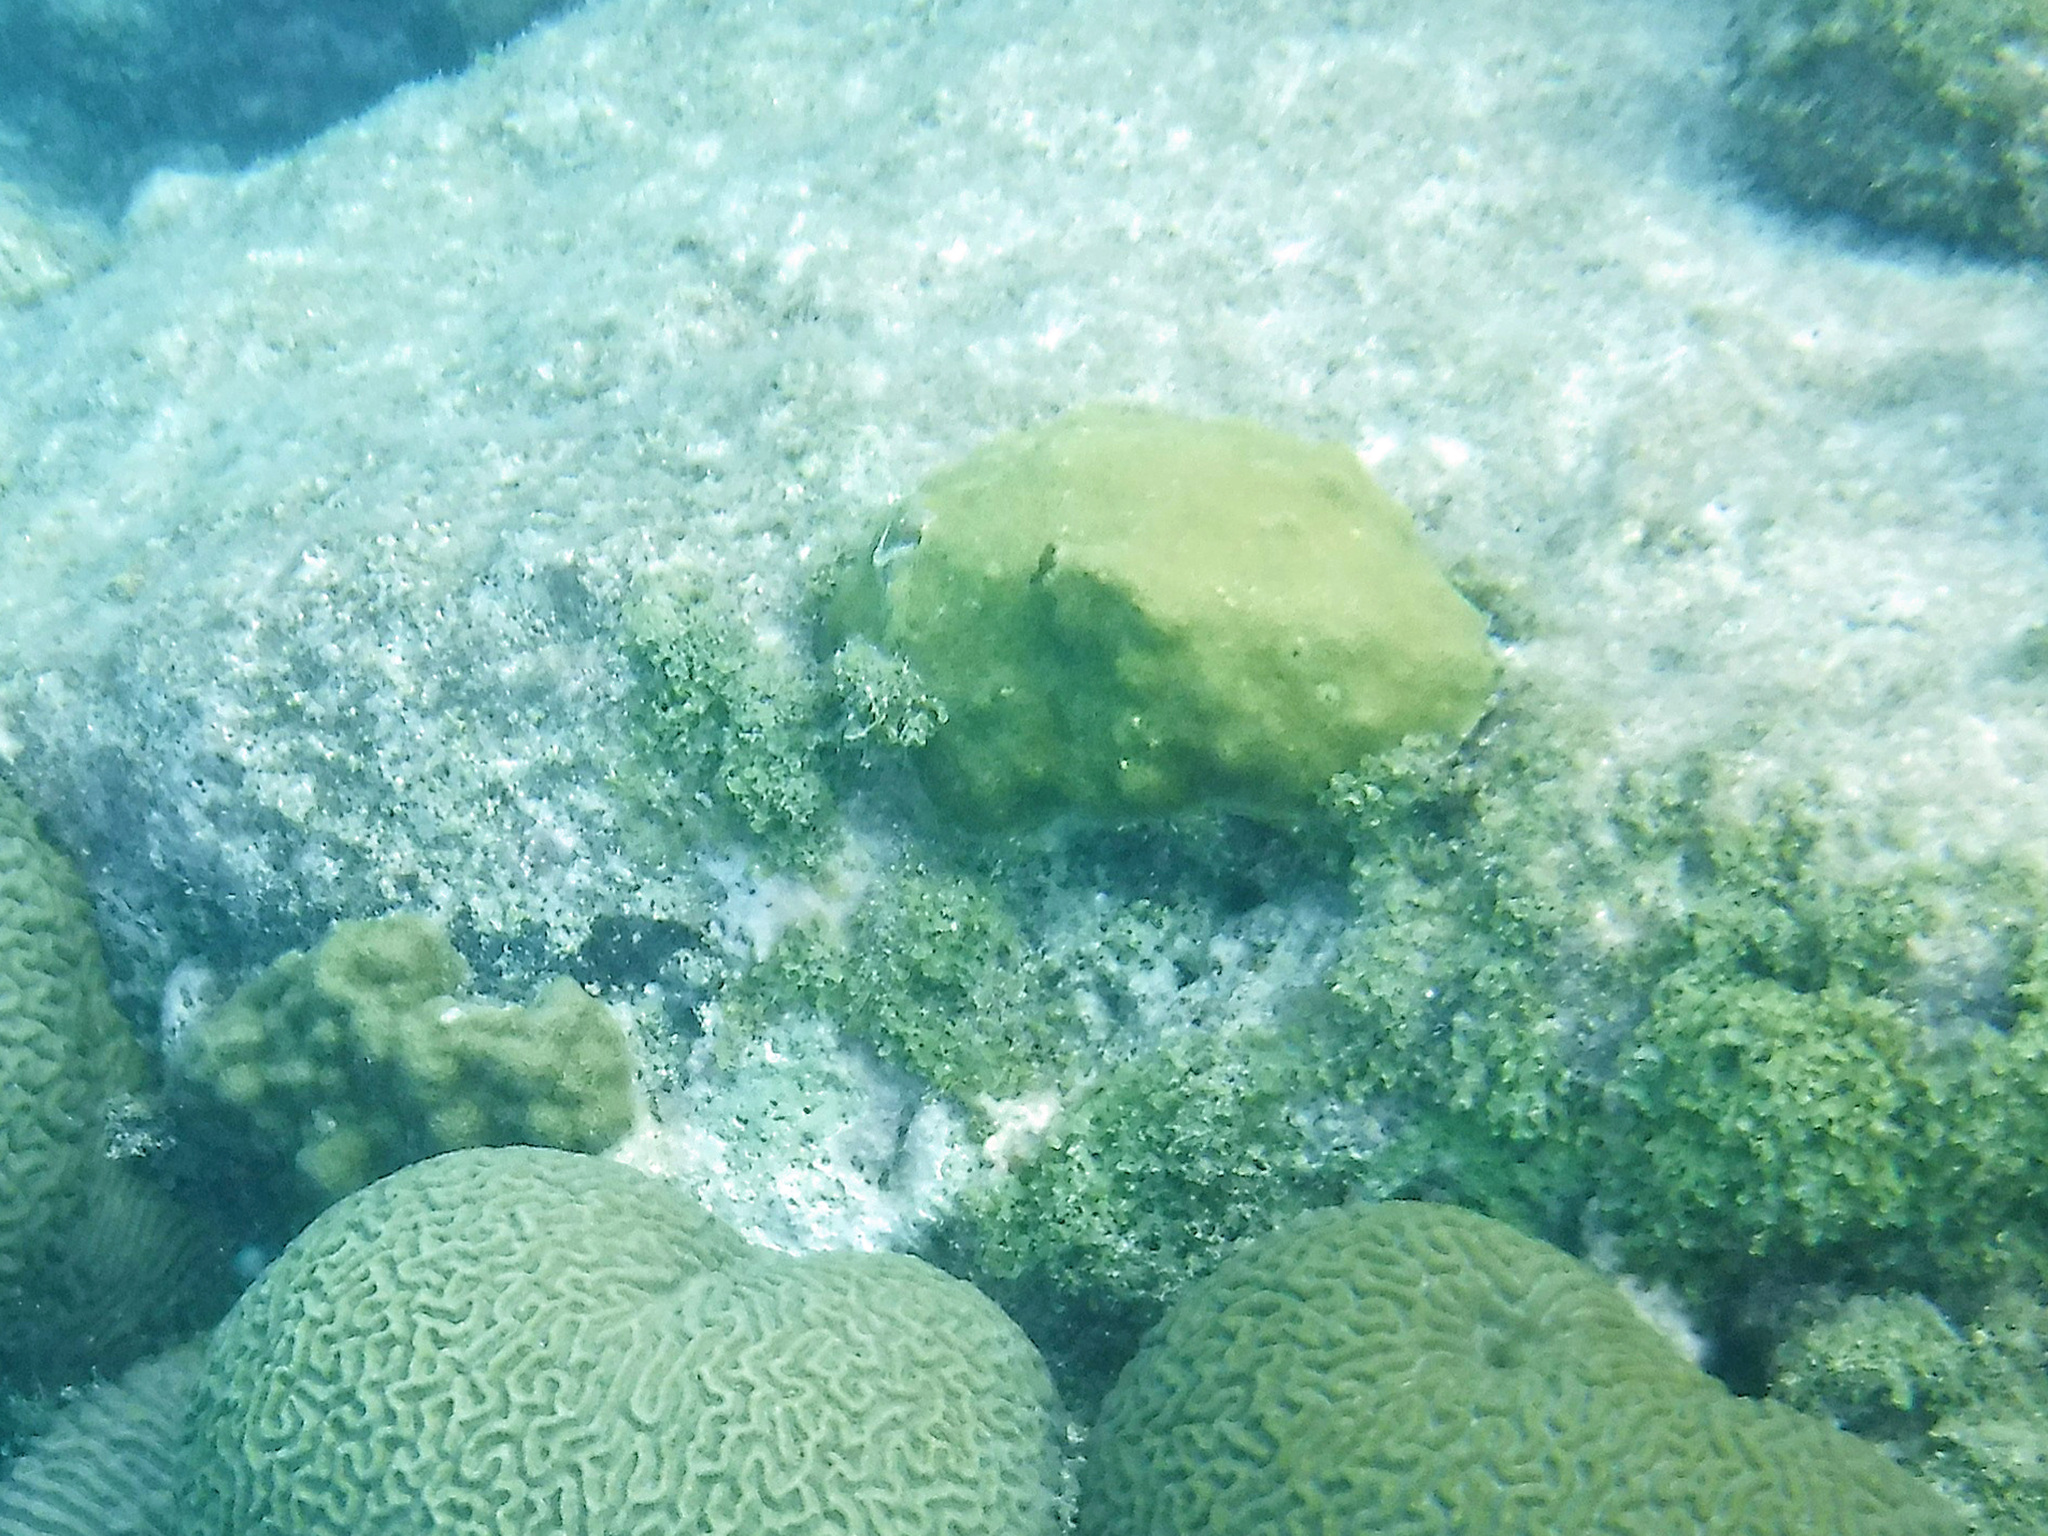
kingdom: Animalia
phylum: Cnidaria
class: Anthozoa
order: Scleractinia
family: Poritidae
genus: Porites
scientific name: Porites astreoides
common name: Mustard hill coral
